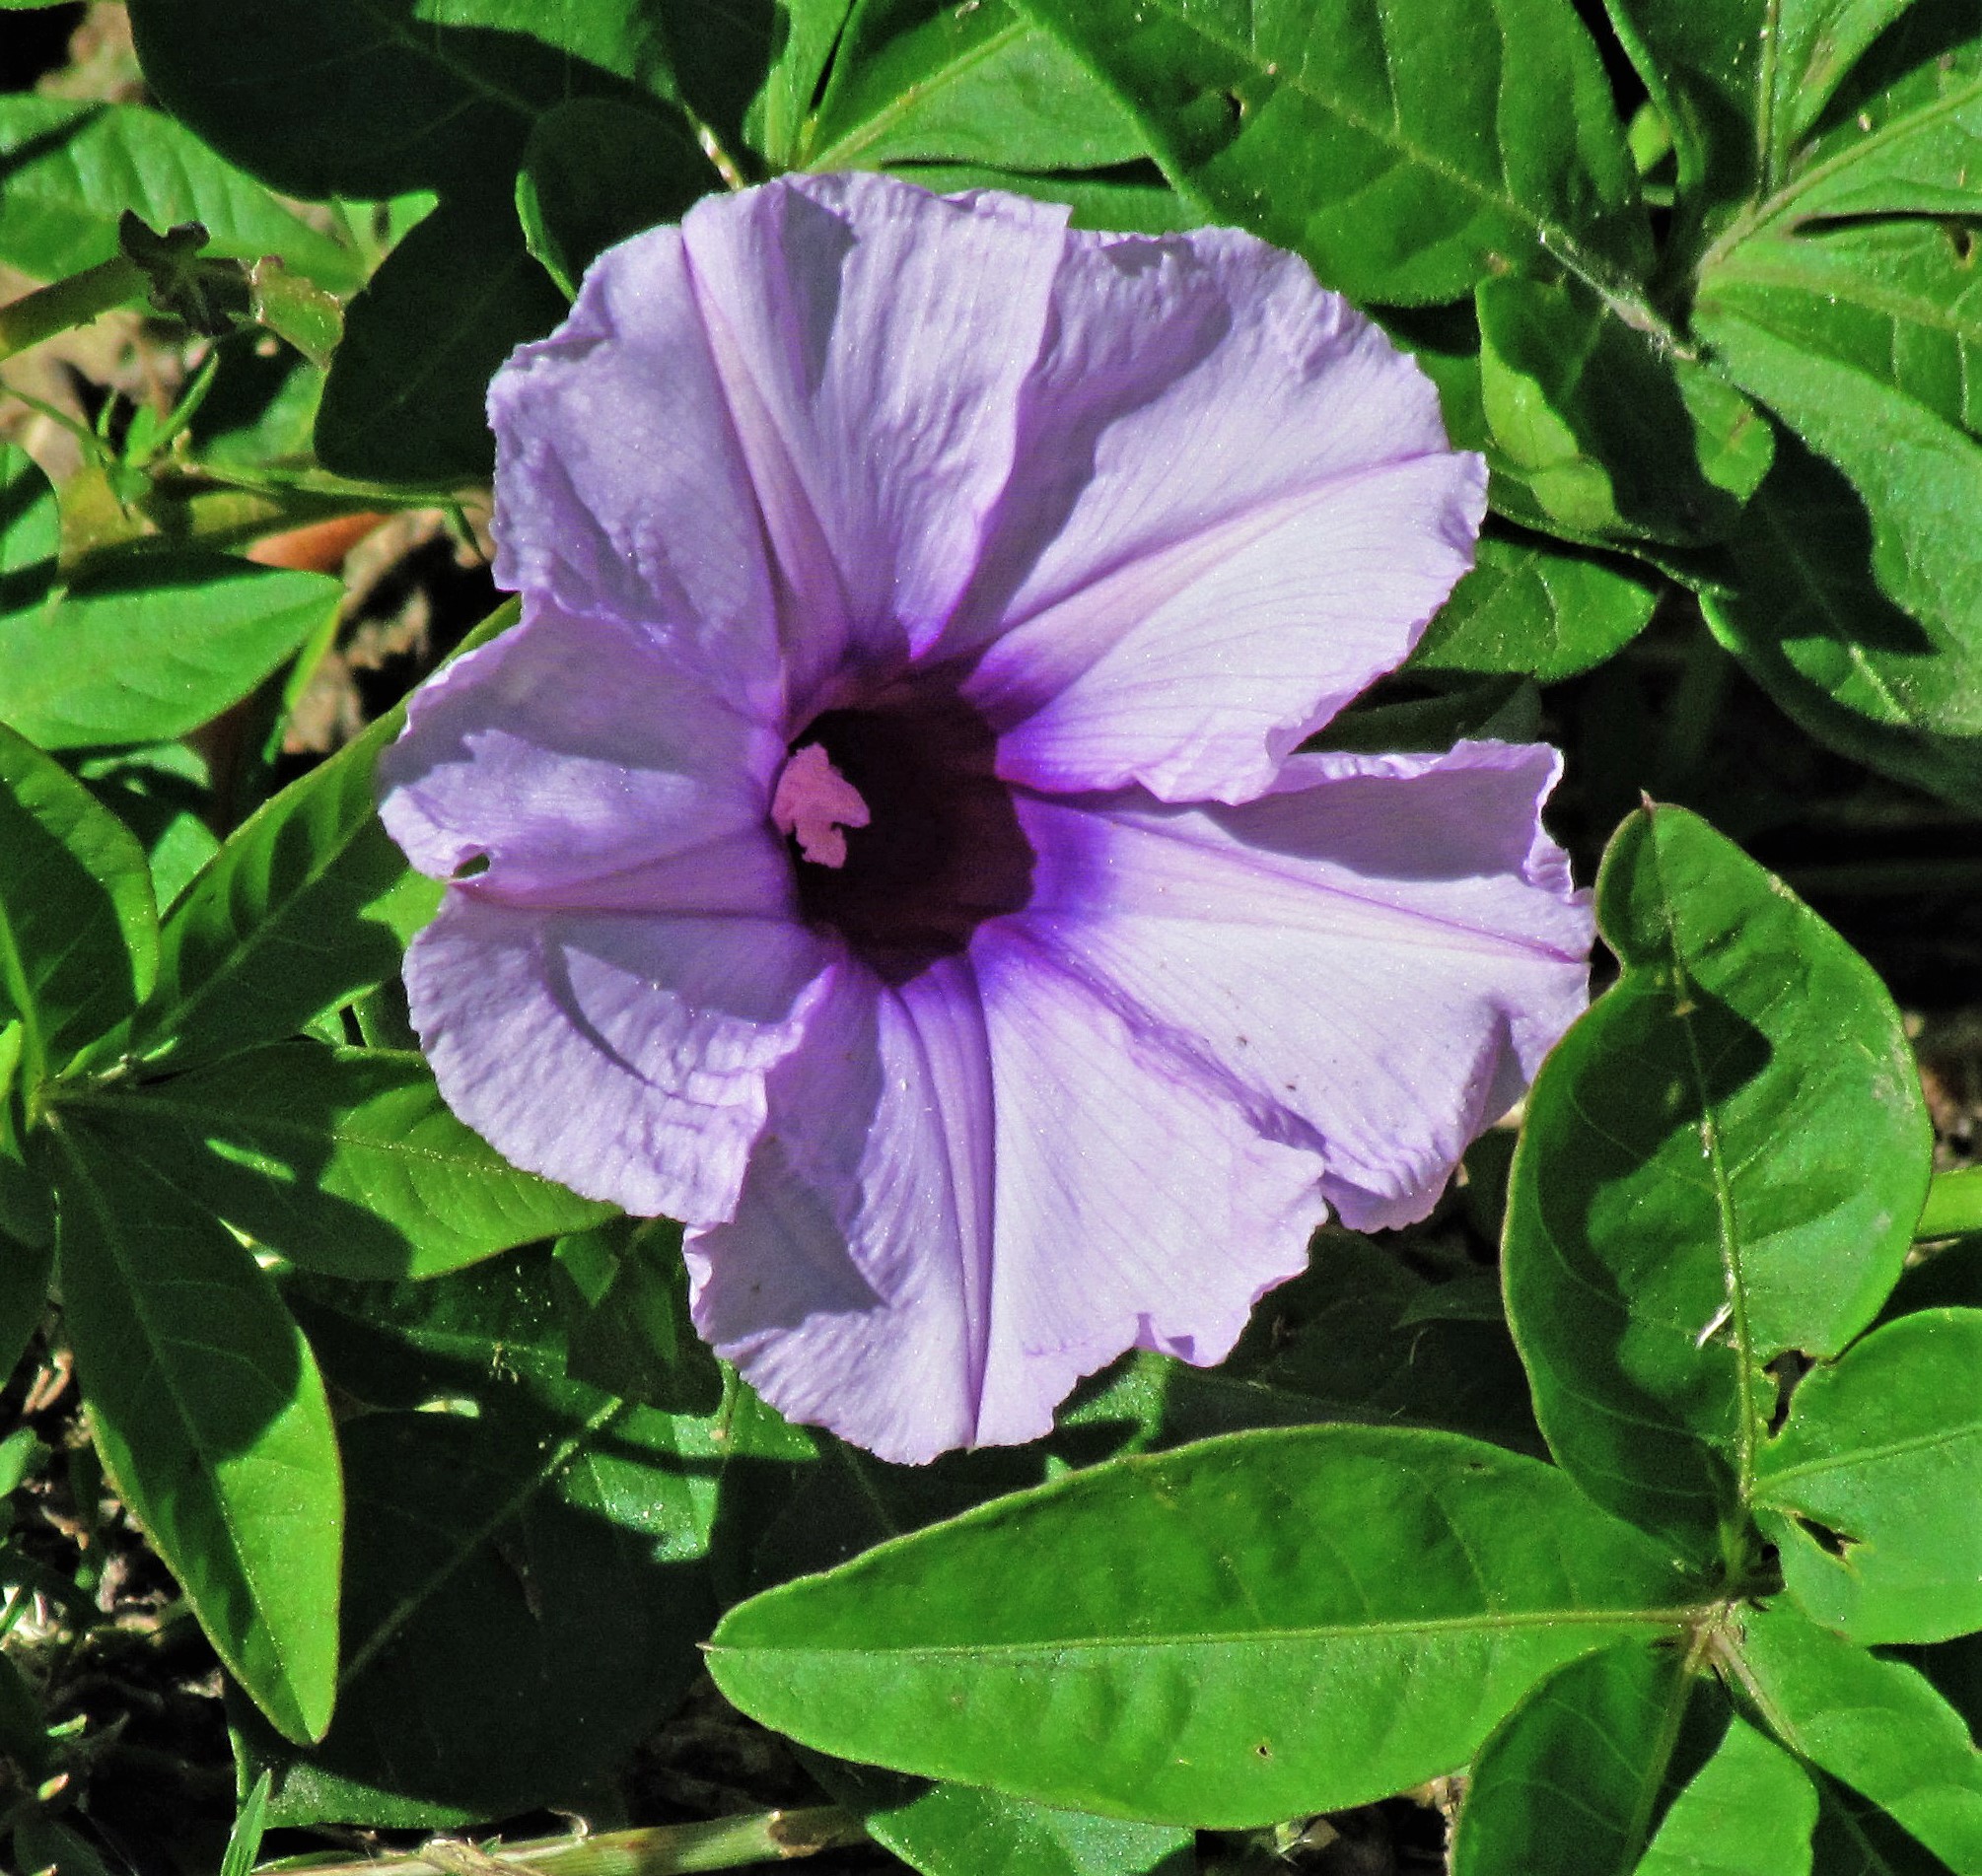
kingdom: Plantae
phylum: Tracheophyta
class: Magnoliopsida
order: Solanales
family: Convolvulaceae
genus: Ipomoea
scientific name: Ipomoea cairica
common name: Mile a minute vine
